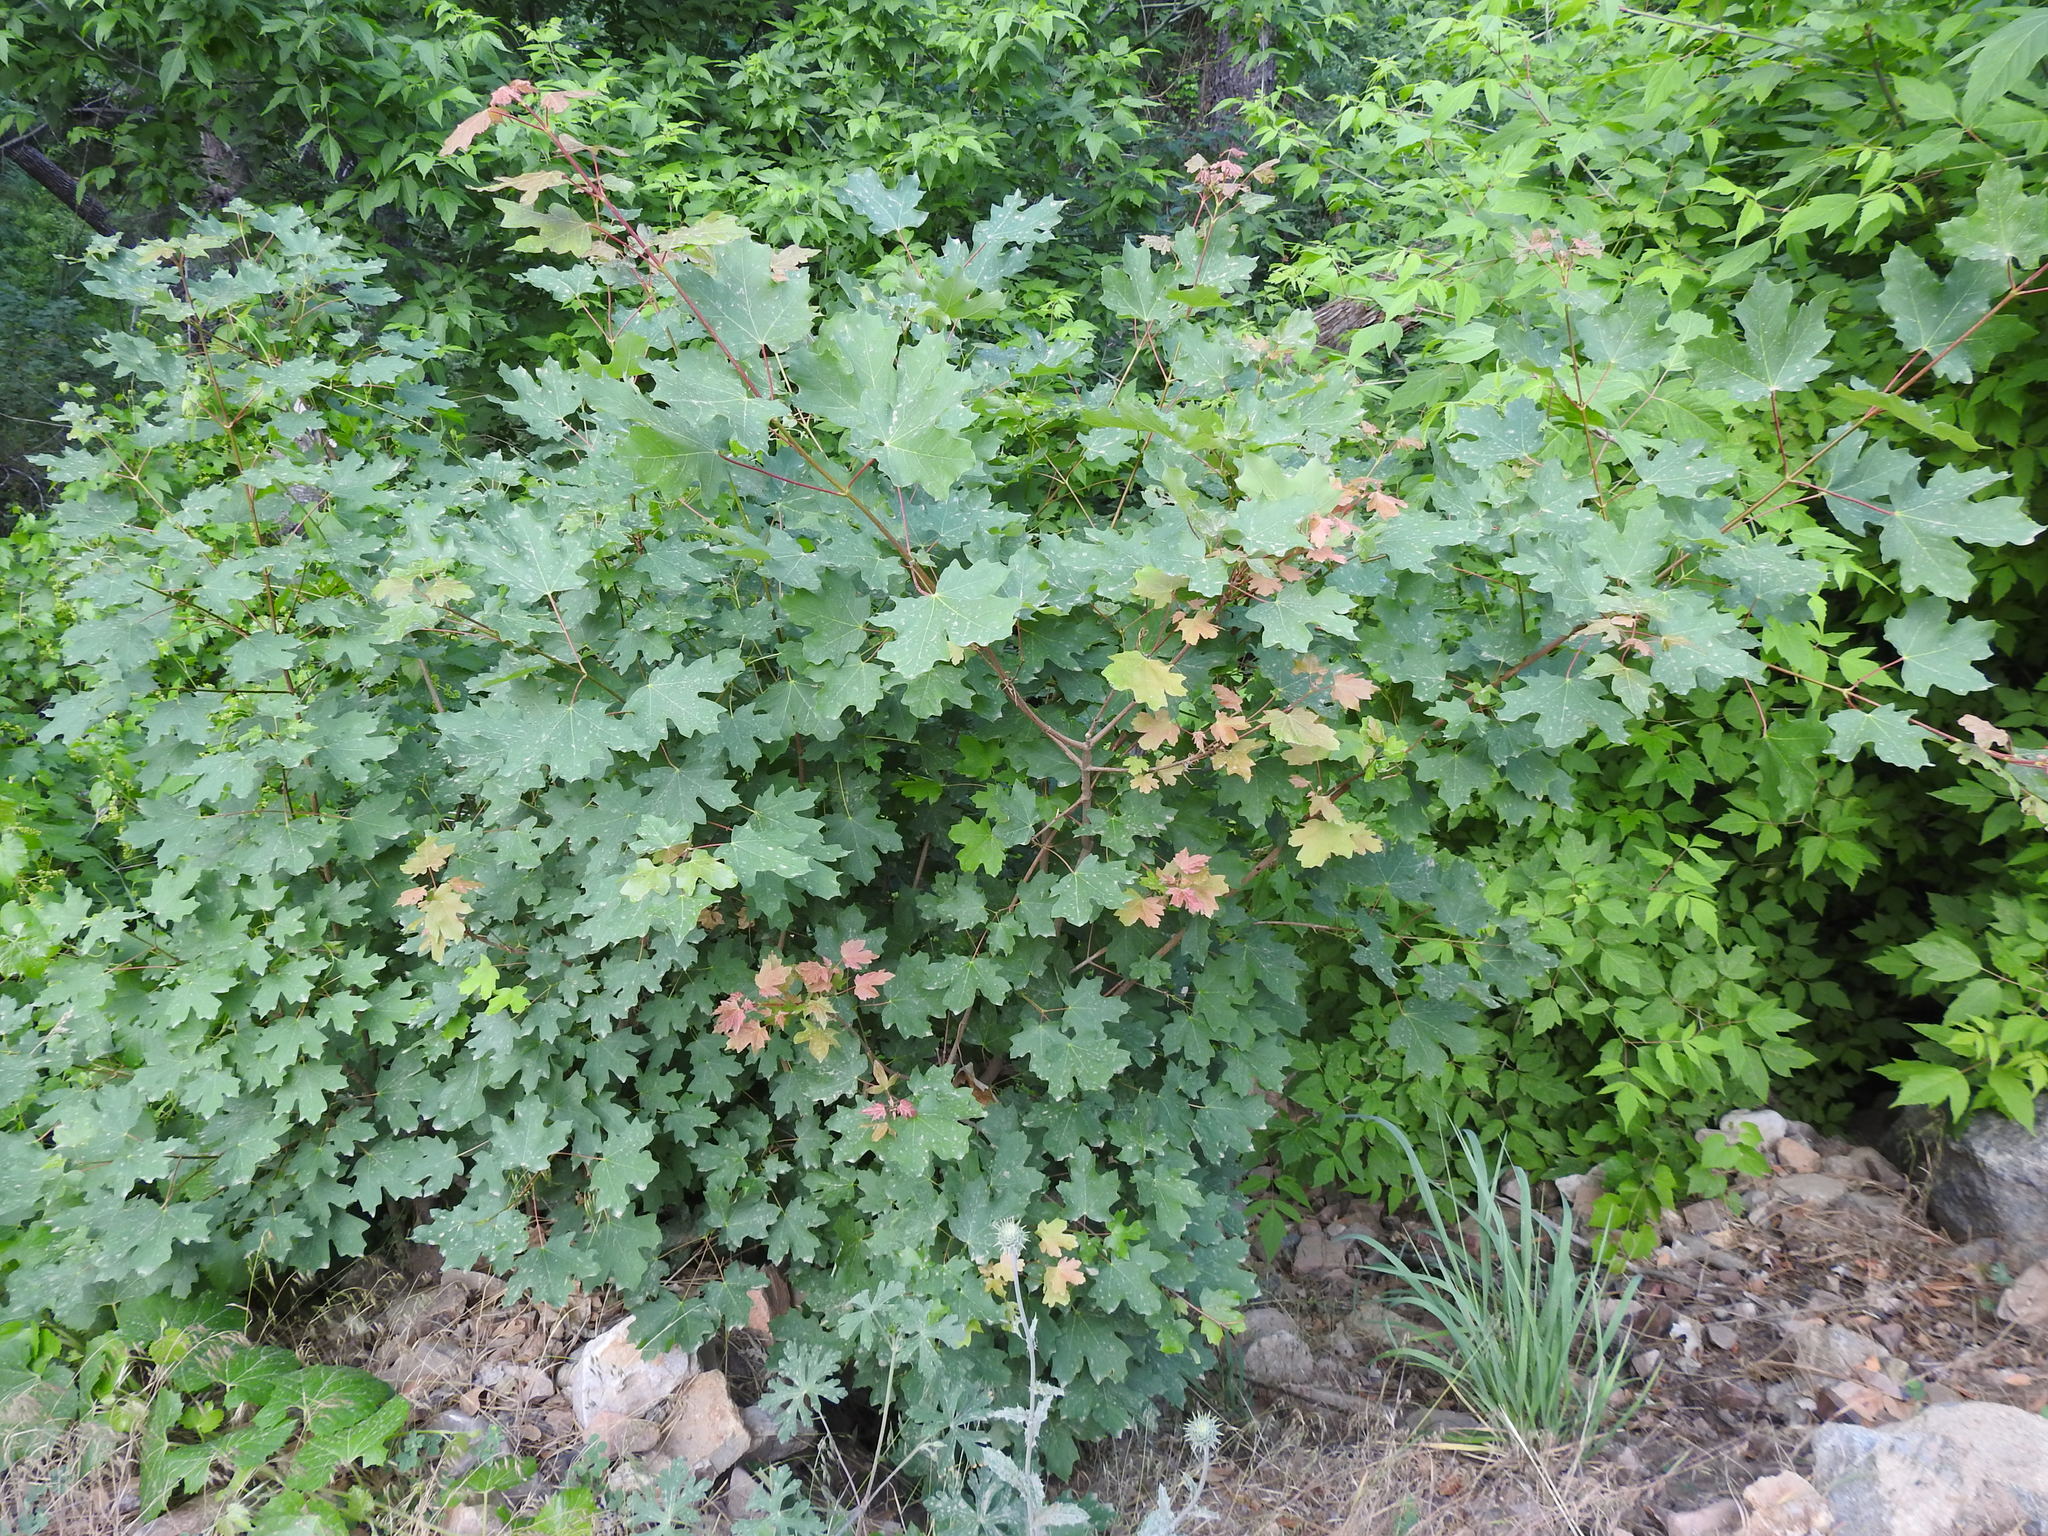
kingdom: Plantae
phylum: Tracheophyta
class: Magnoliopsida
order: Sapindales
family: Sapindaceae
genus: Acer
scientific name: Acer grandidentatum
